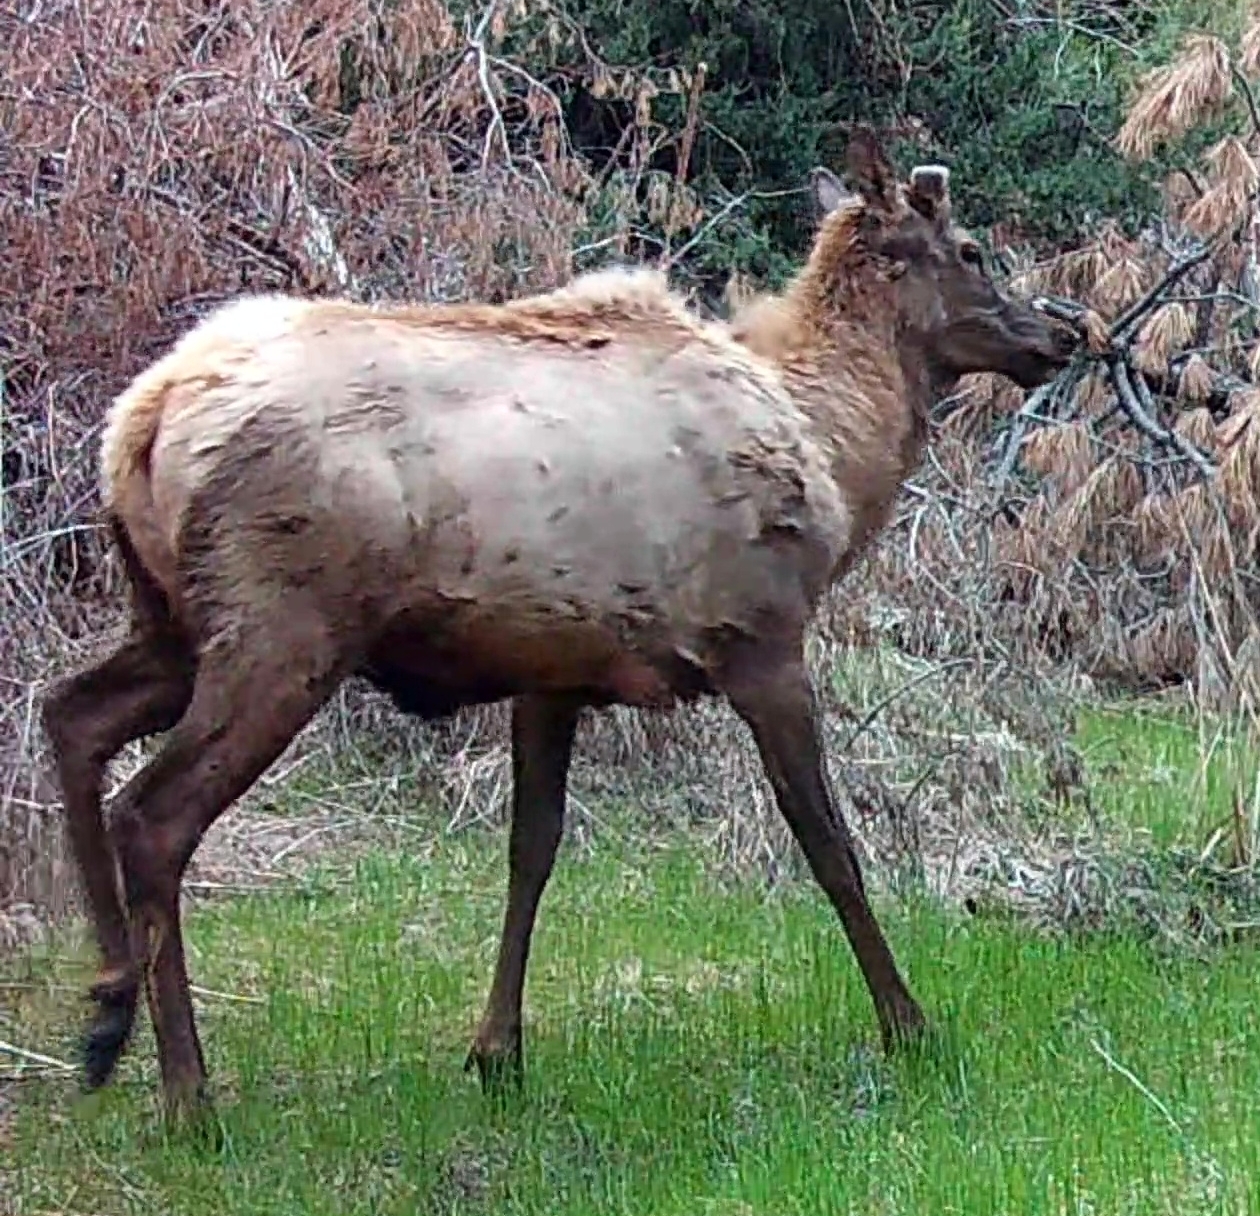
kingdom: Animalia
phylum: Chordata
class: Mammalia
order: Artiodactyla
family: Cervidae
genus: Cervus
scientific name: Cervus elaphus
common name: Red deer
